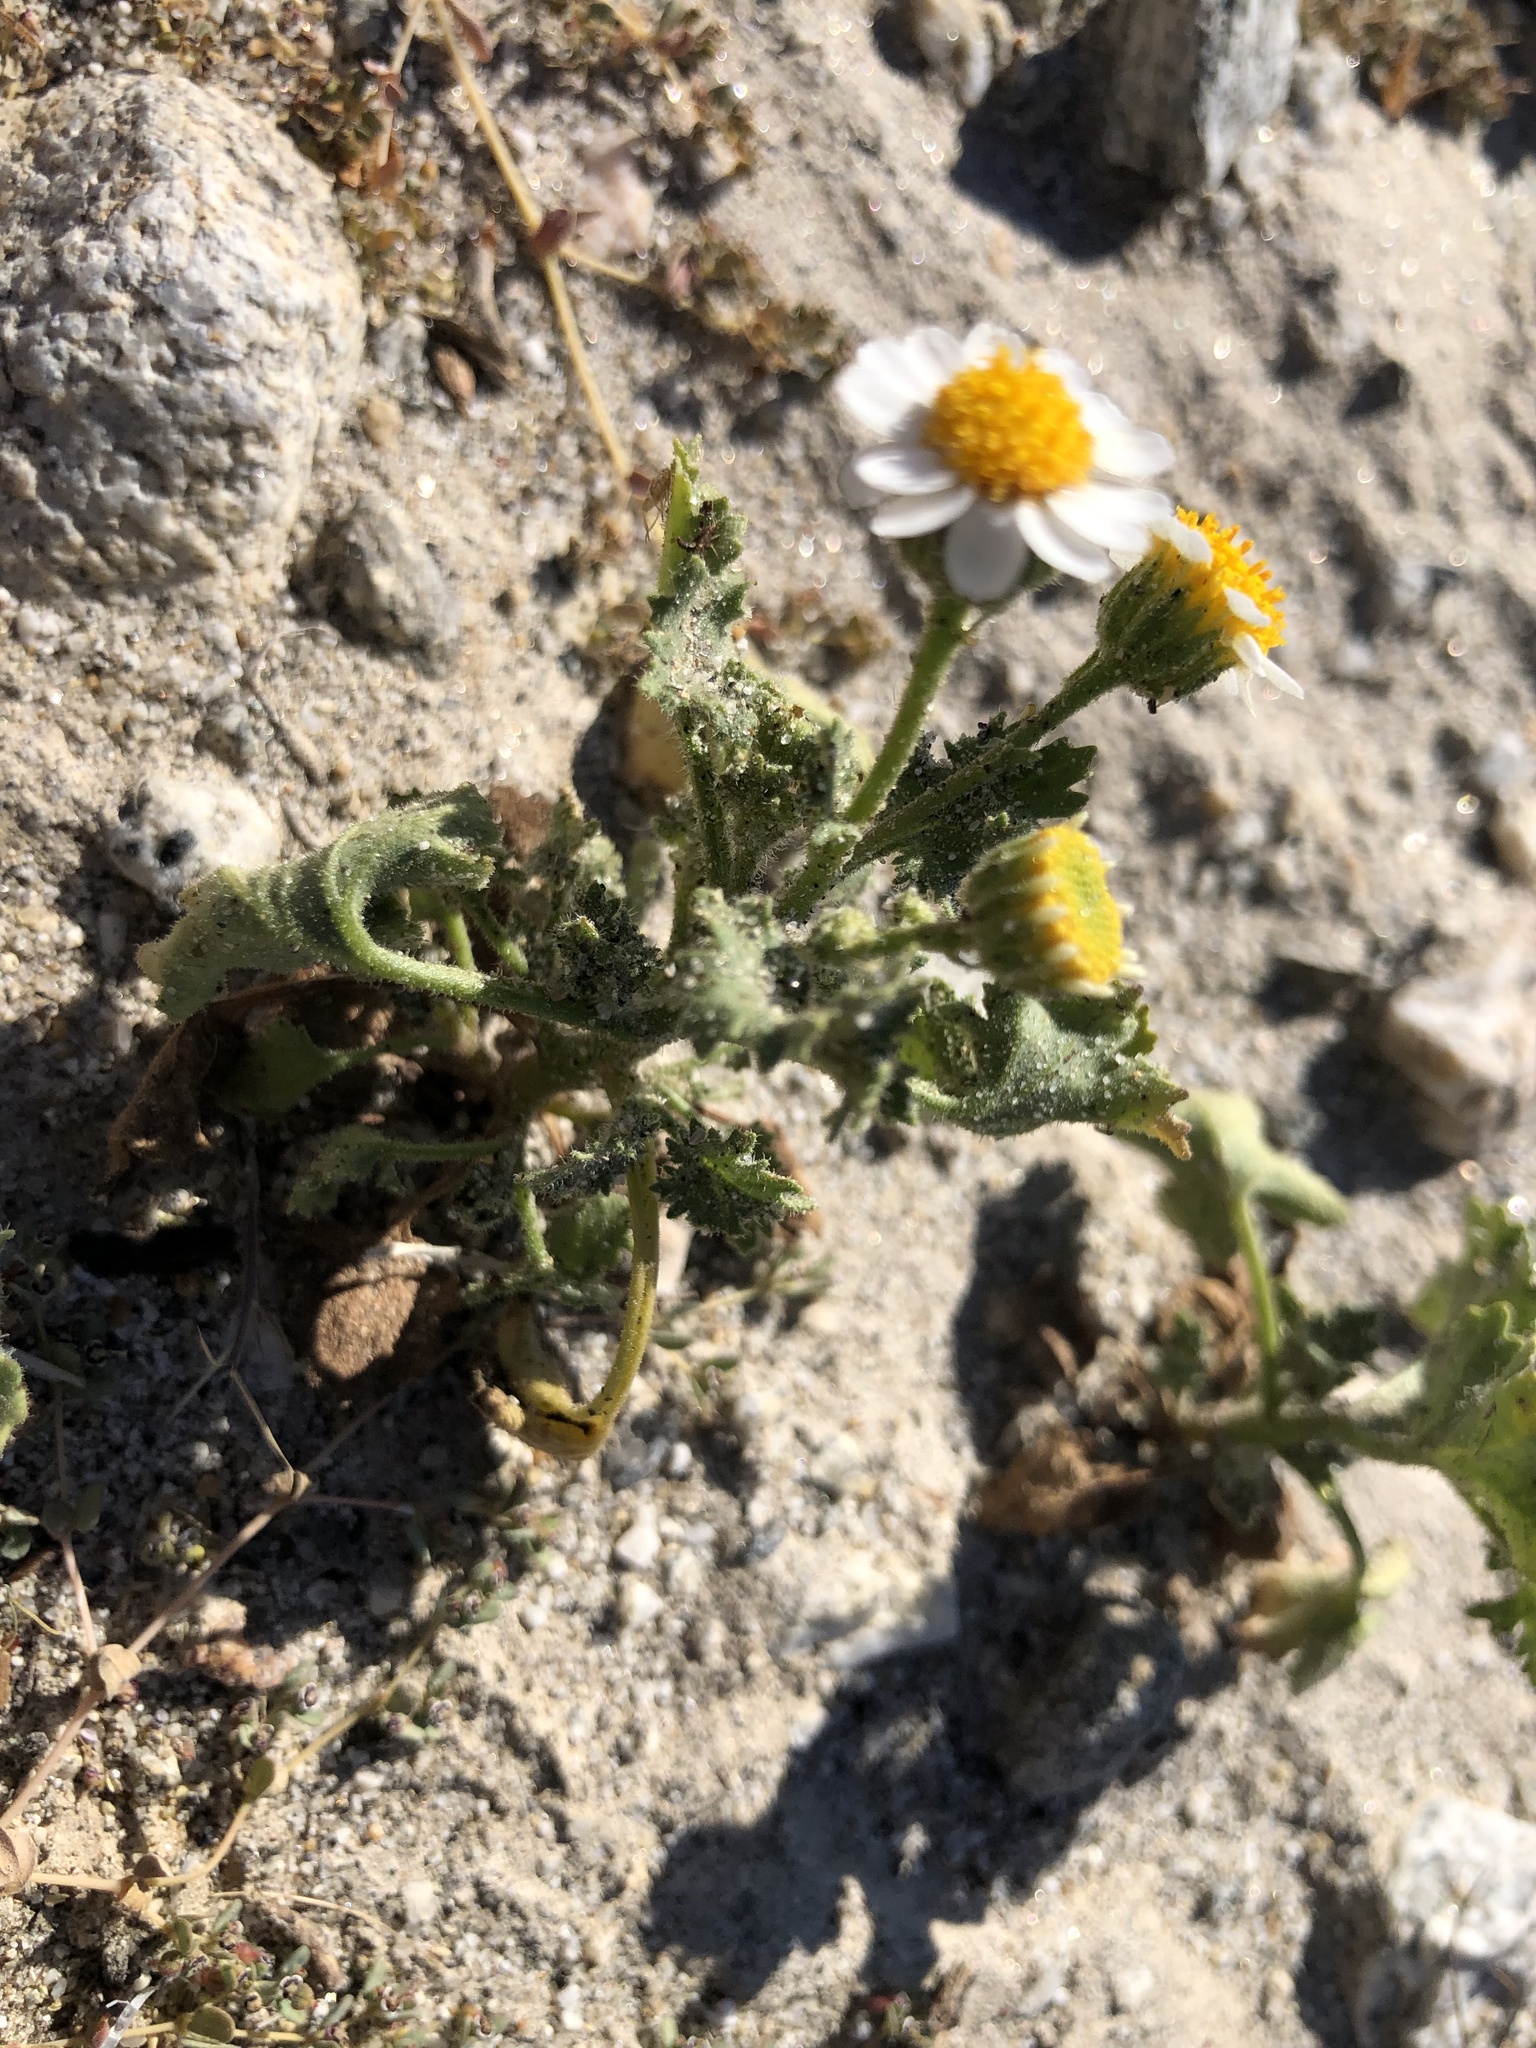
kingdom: Plantae
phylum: Tracheophyta
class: Magnoliopsida
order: Asterales
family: Asteraceae
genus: Laphamia
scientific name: Laphamia emoryi
